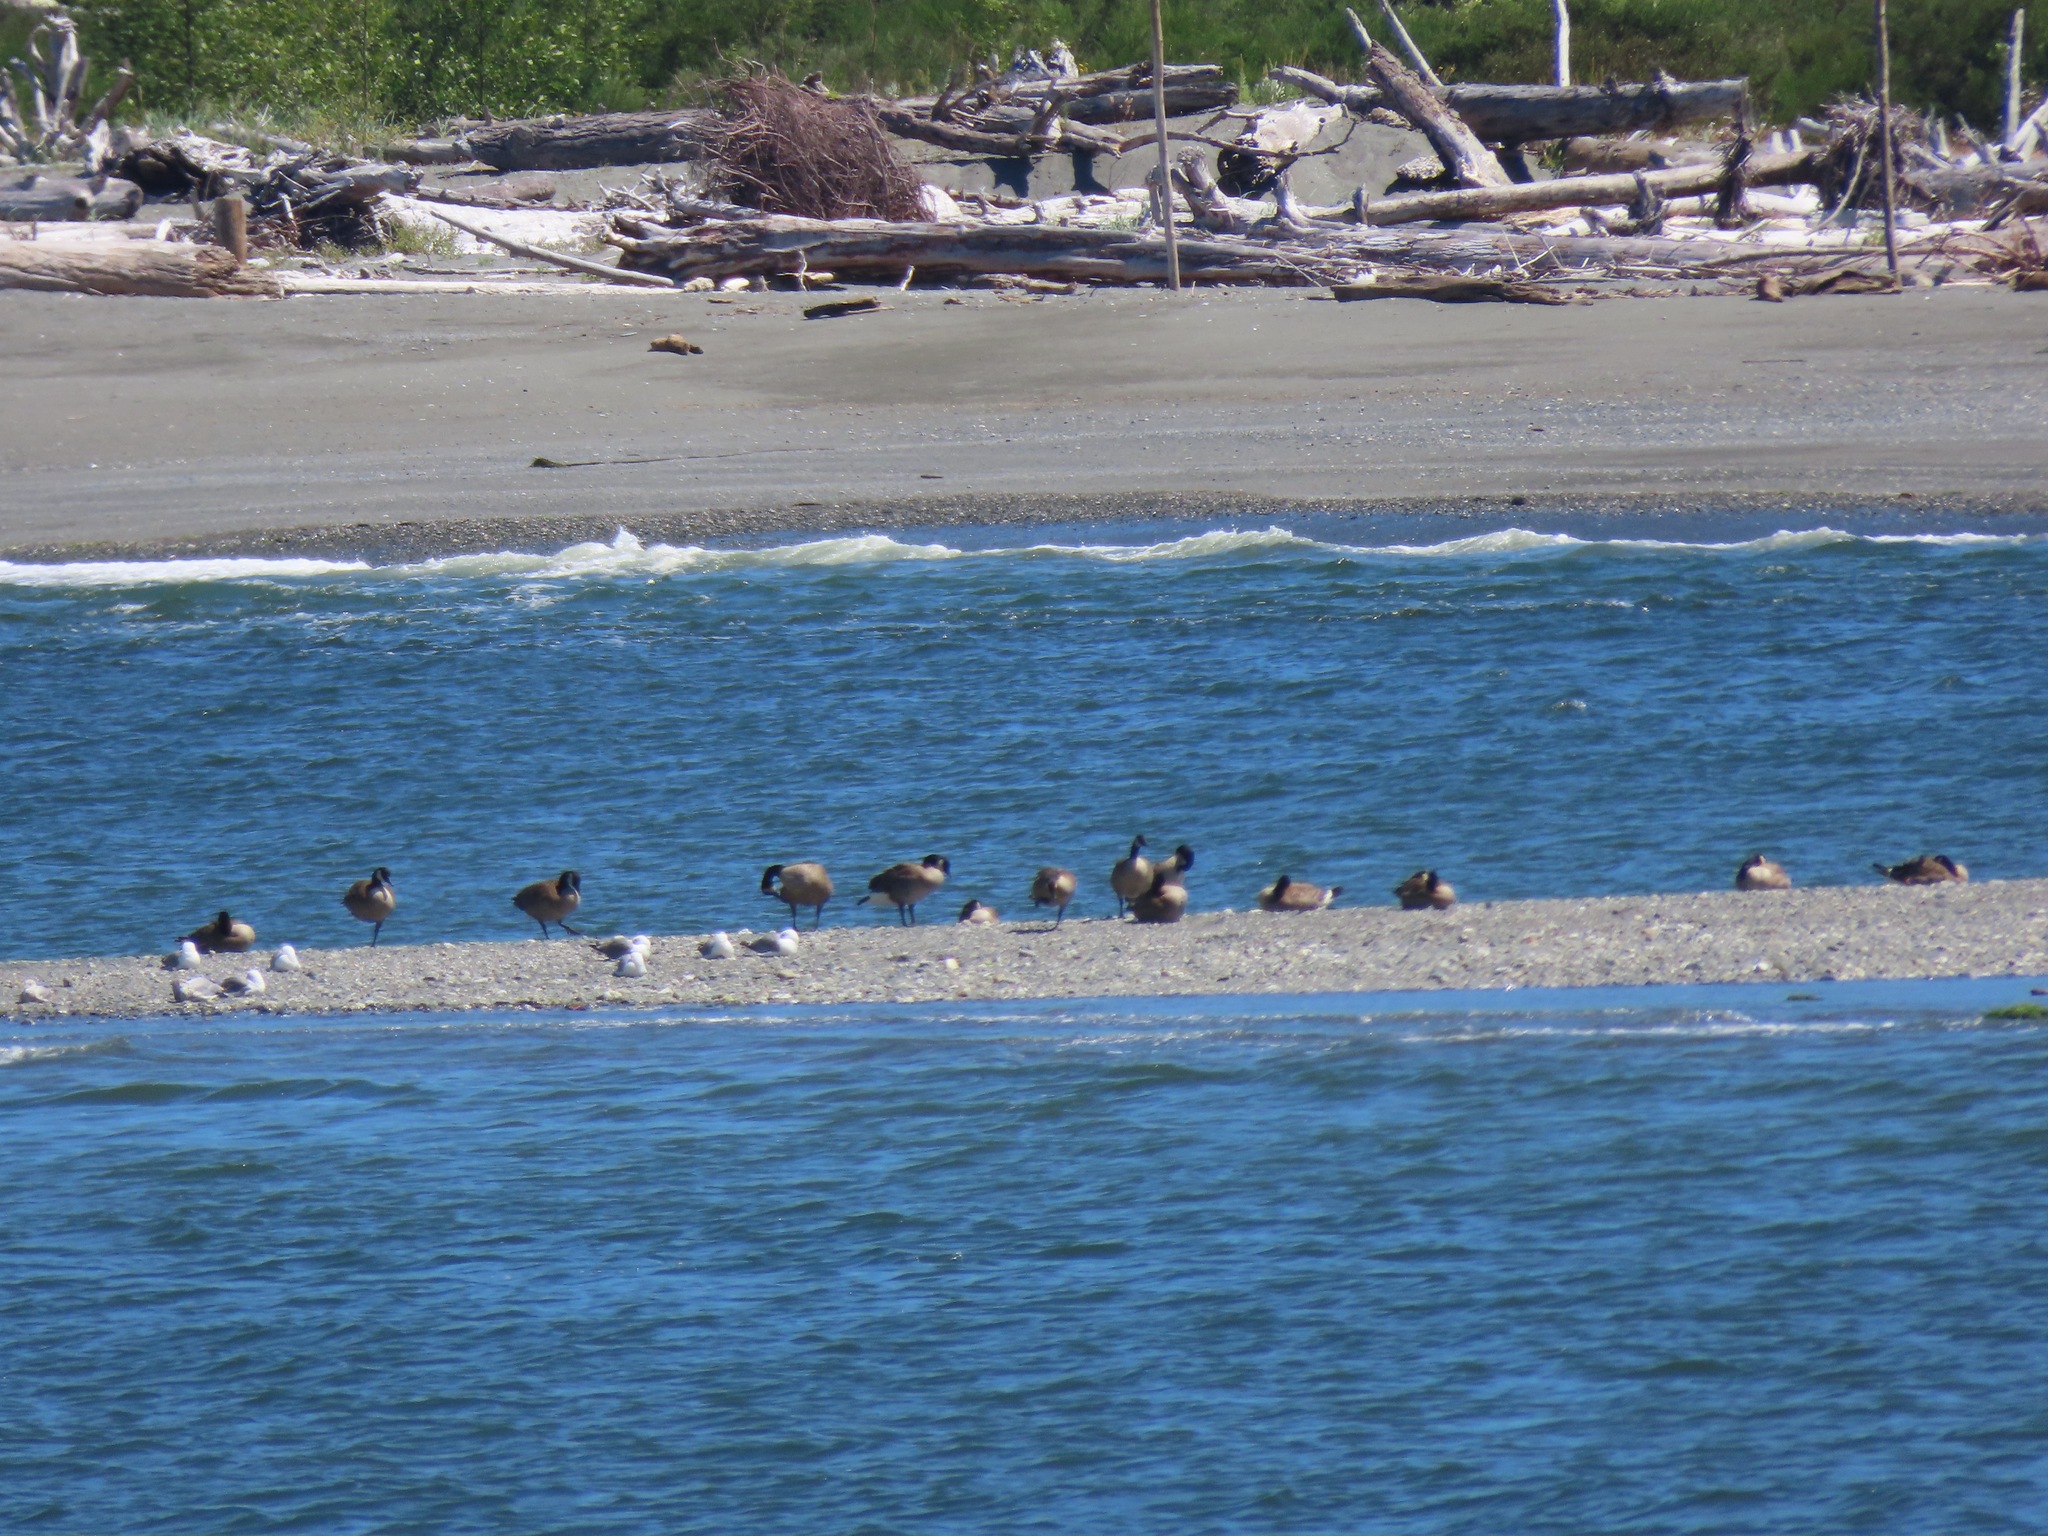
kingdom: Animalia
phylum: Chordata
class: Aves
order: Anseriformes
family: Anatidae
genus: Branta
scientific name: Branta canadensis
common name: Canada goose
